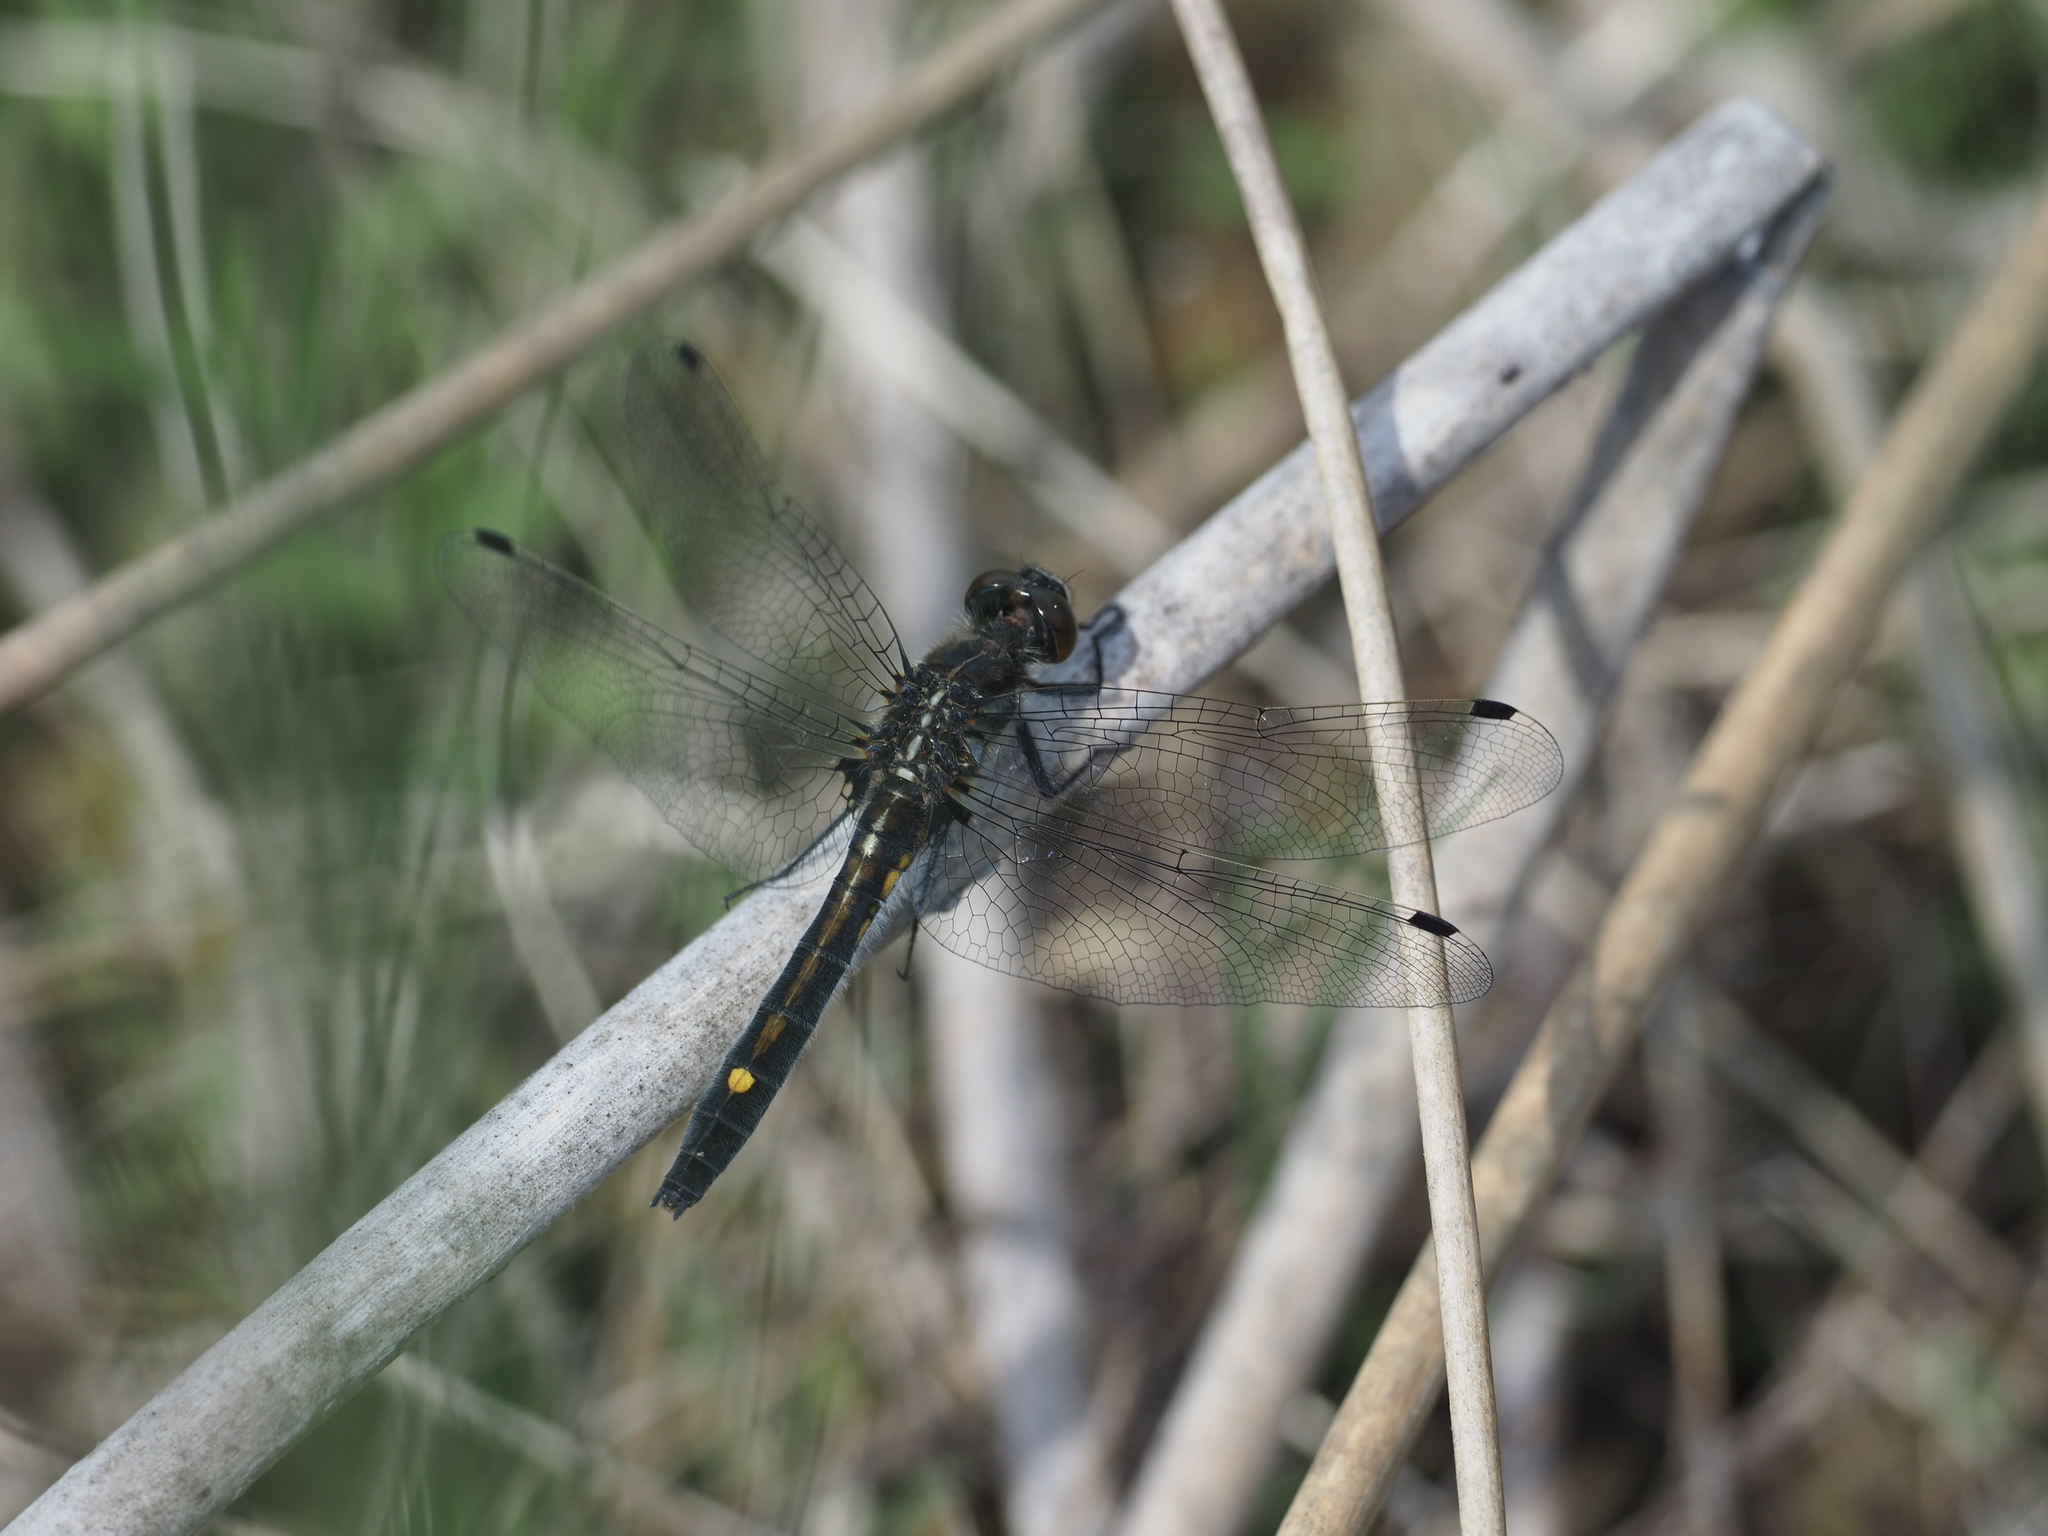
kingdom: Animalia
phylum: Arthropoda
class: Insecta
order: Odonata
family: Libellulidae
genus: Leucorrhinia
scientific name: Leucorrhinia intacta
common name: Dot-tailed whiteface
